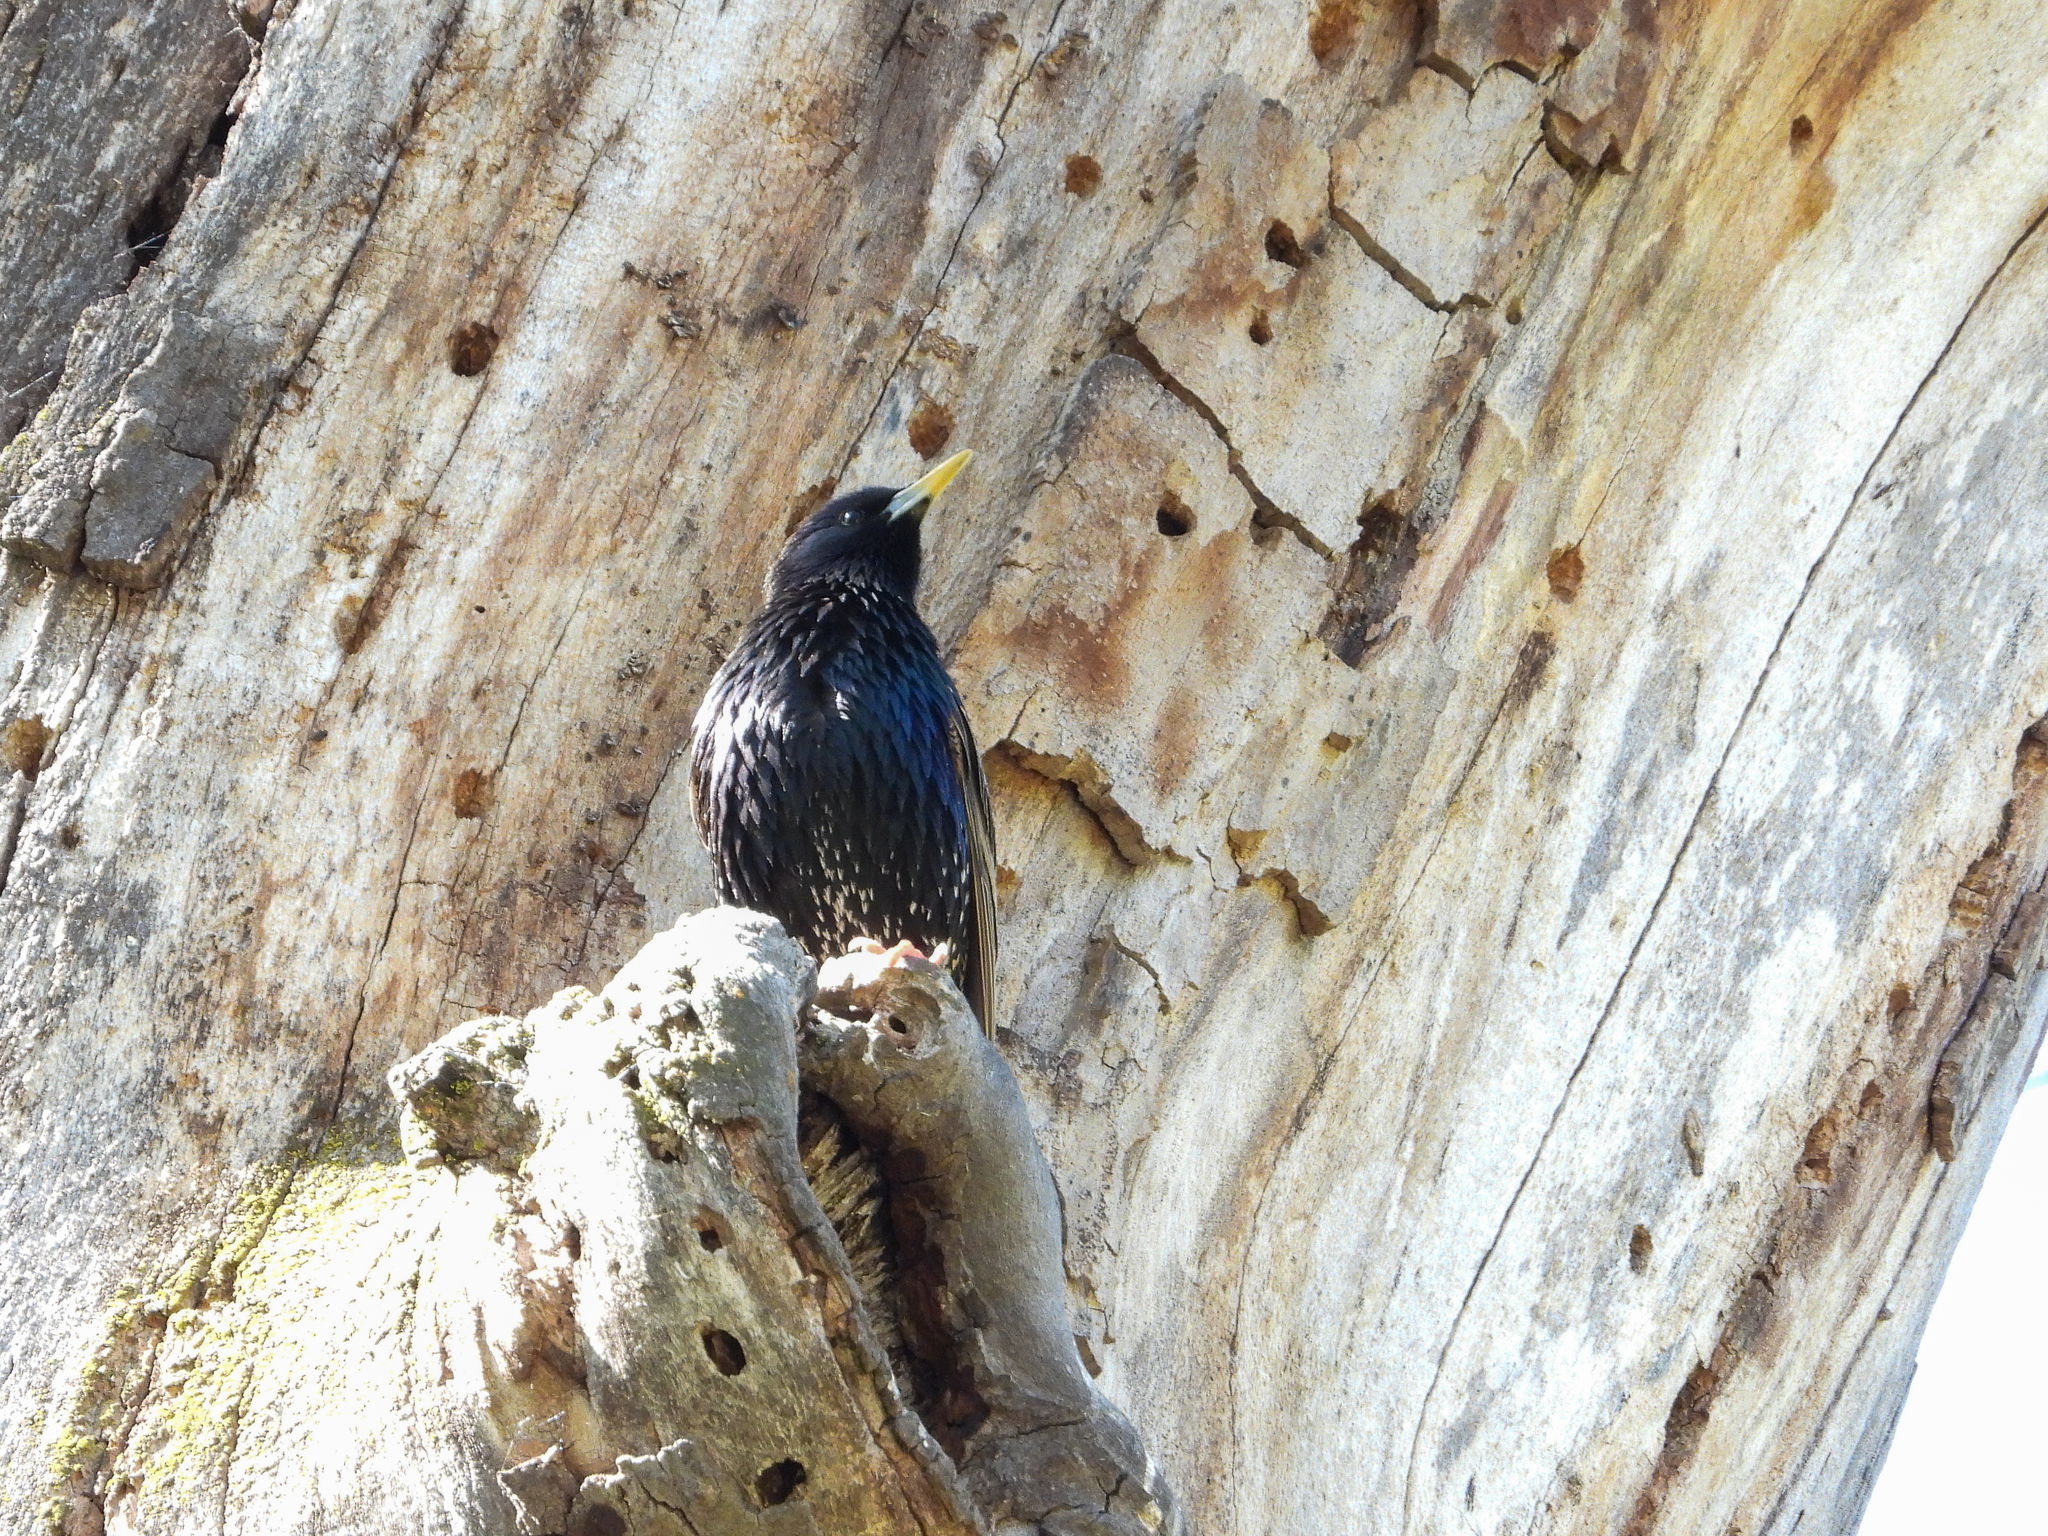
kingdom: Animalia
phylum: Chordata
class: Aves
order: Passeriformes
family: Sturnidae
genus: Sturnus
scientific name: Sturnus vulgaris
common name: Common starling
